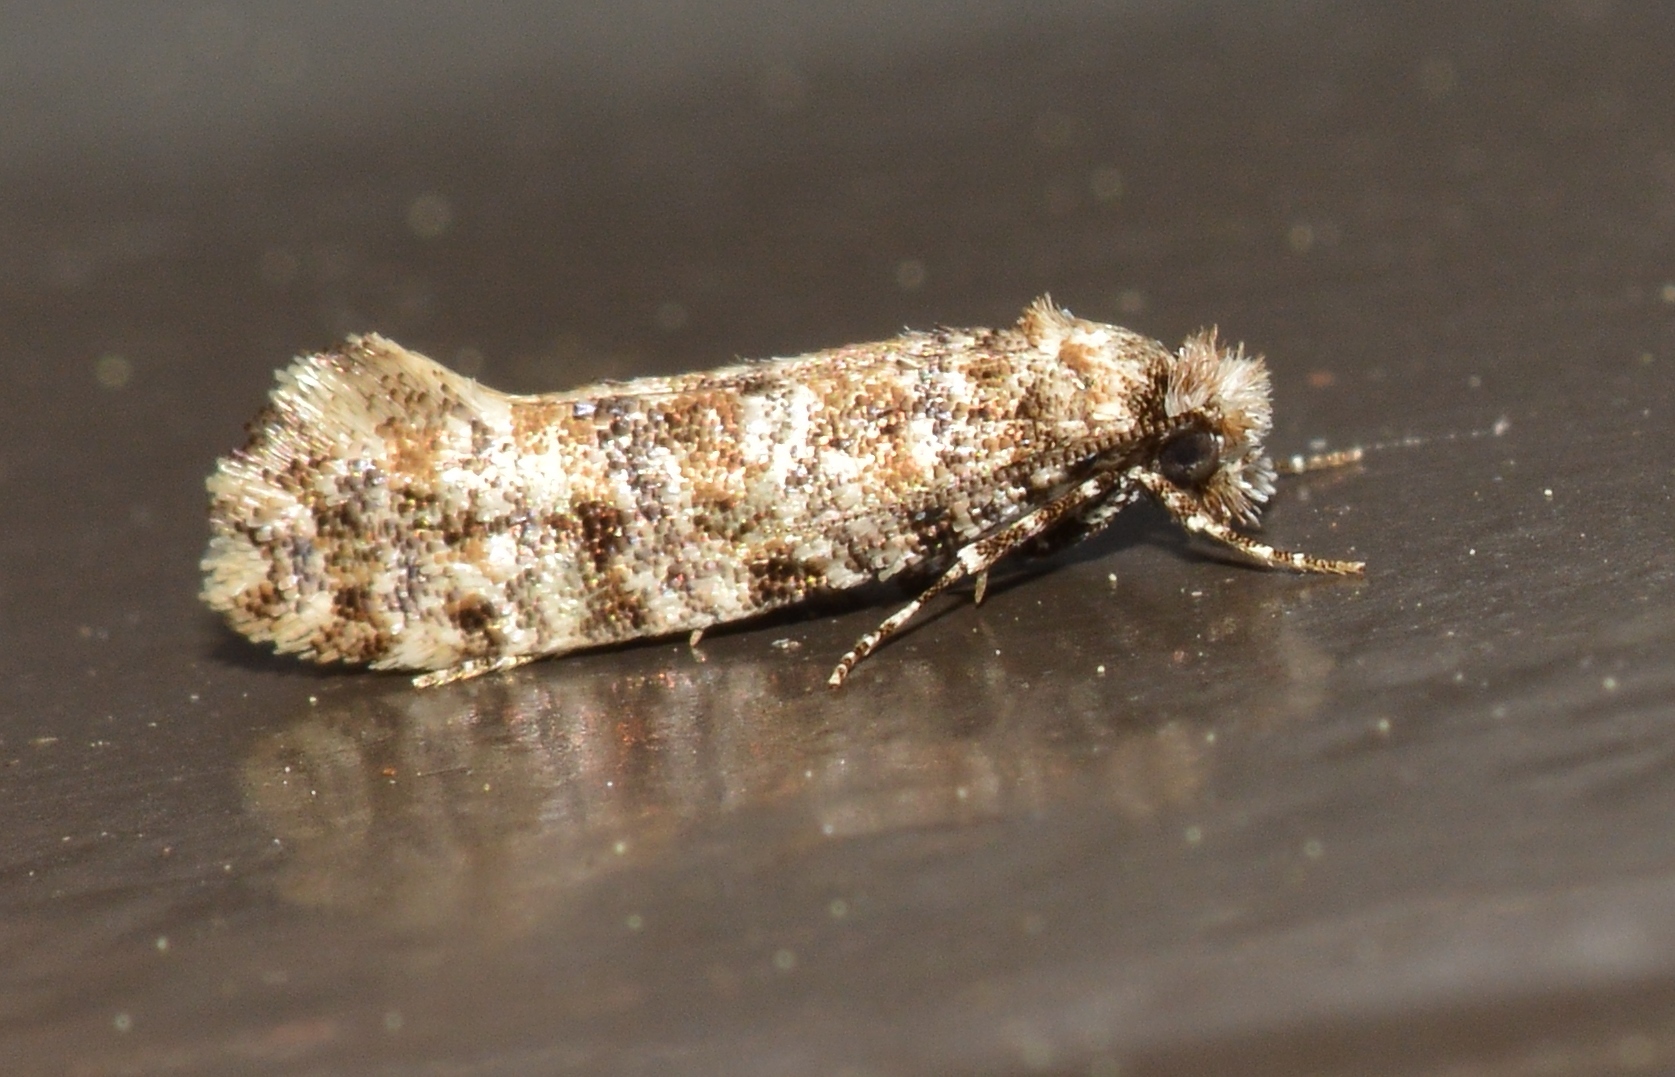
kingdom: Animalia
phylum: Arthropoda
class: Insecta
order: Lepidoptera
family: Tineidae
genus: Xylesthia
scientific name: Xylesthia pruniramiella
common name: Clemens' bark moth
